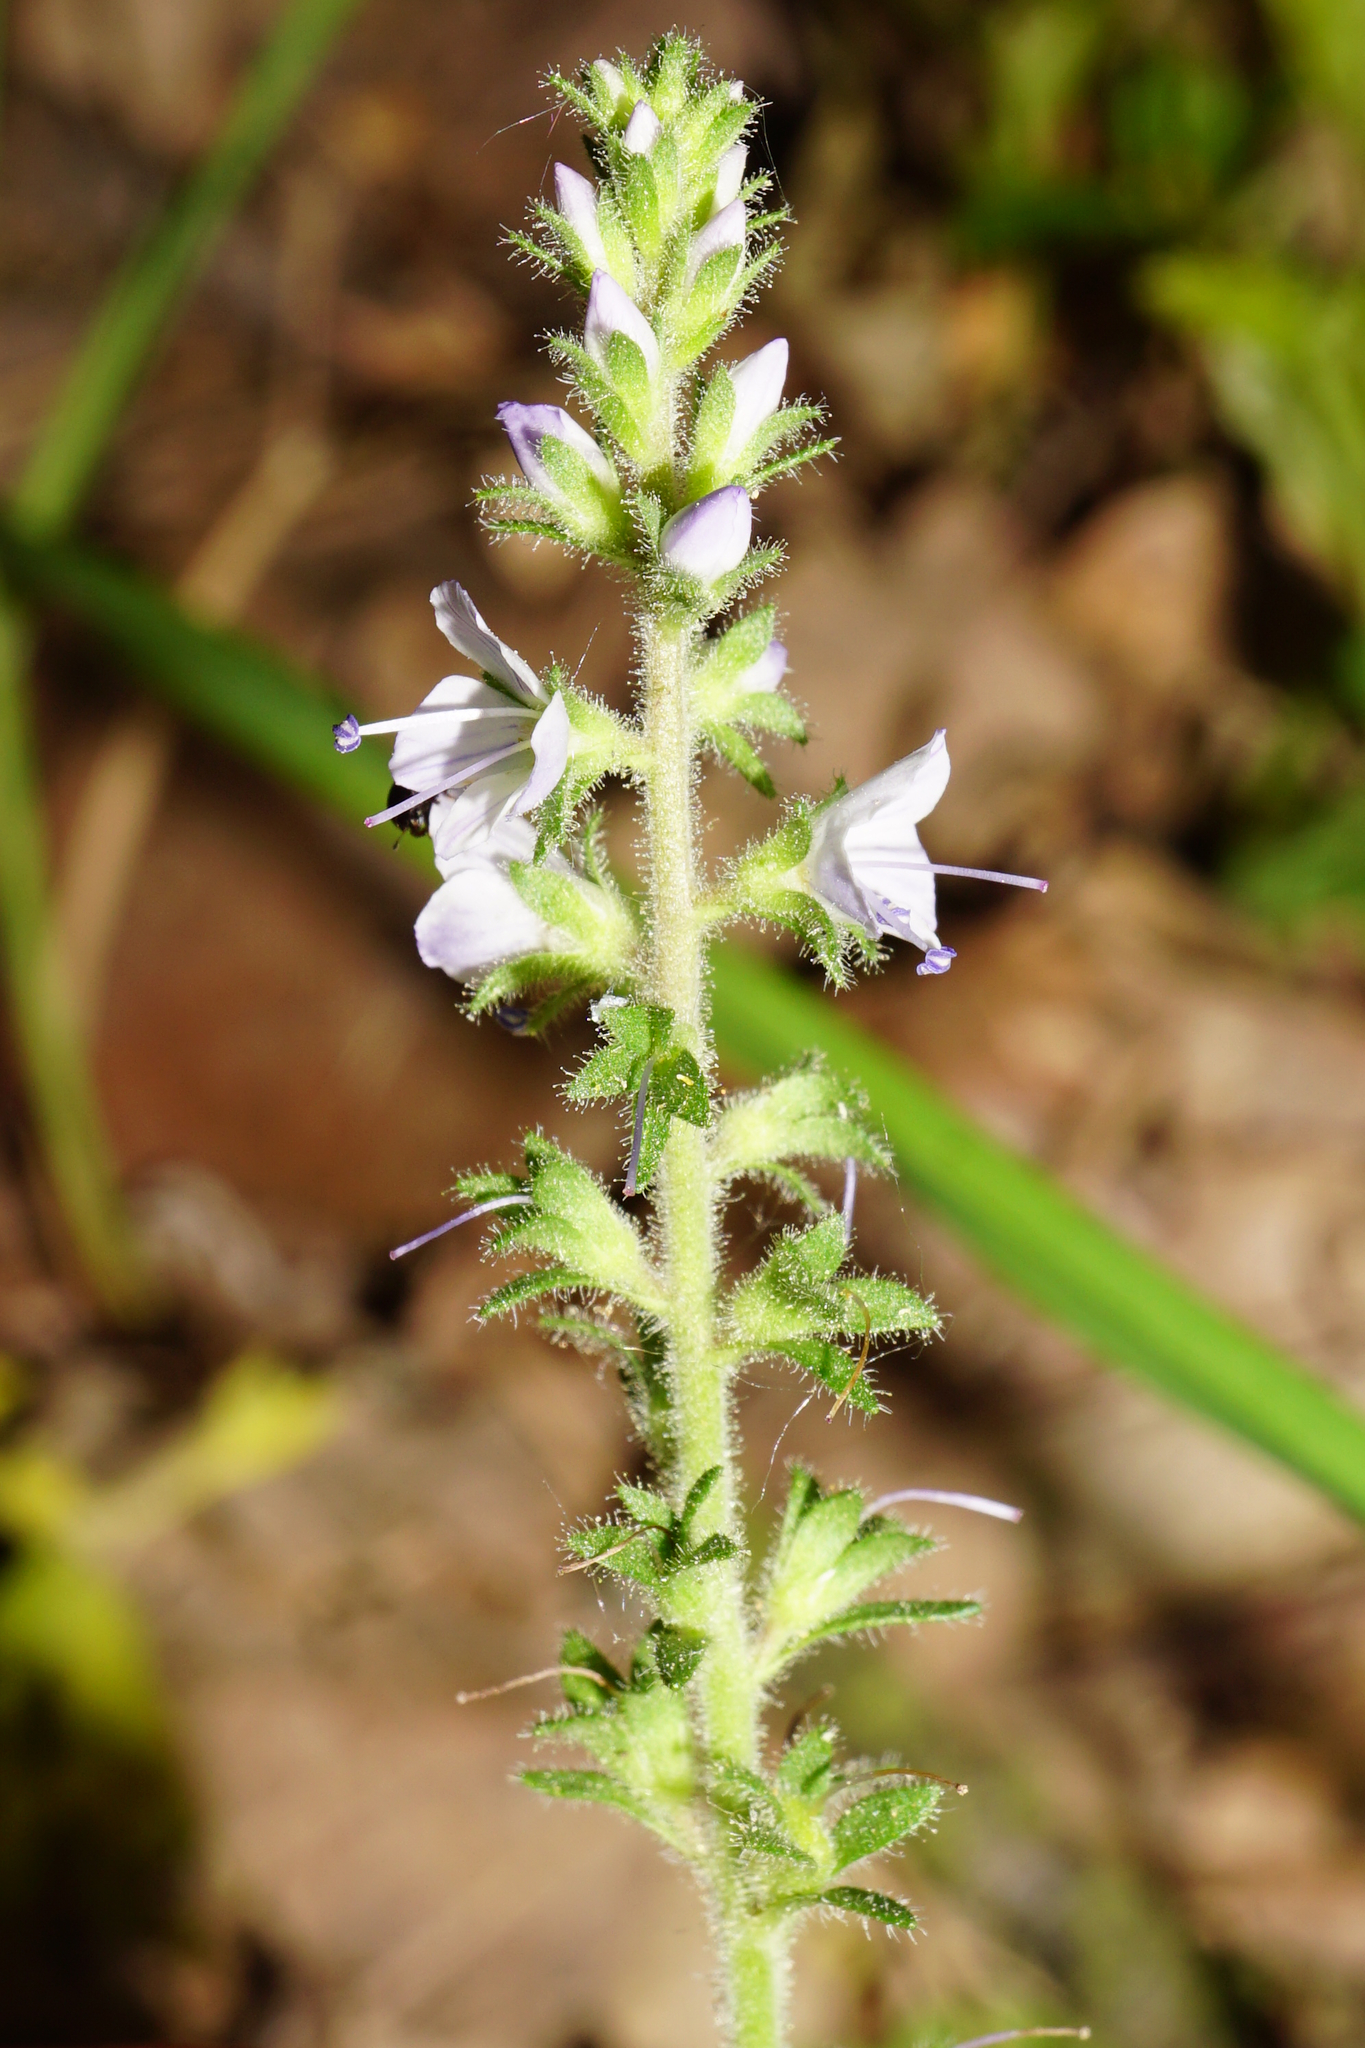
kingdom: Plantae
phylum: Tracheophyta
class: Magnoliopsida
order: Lamiales
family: Plantaginaceae
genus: Veronica
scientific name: Veronica officinalis
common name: Common speedwell
